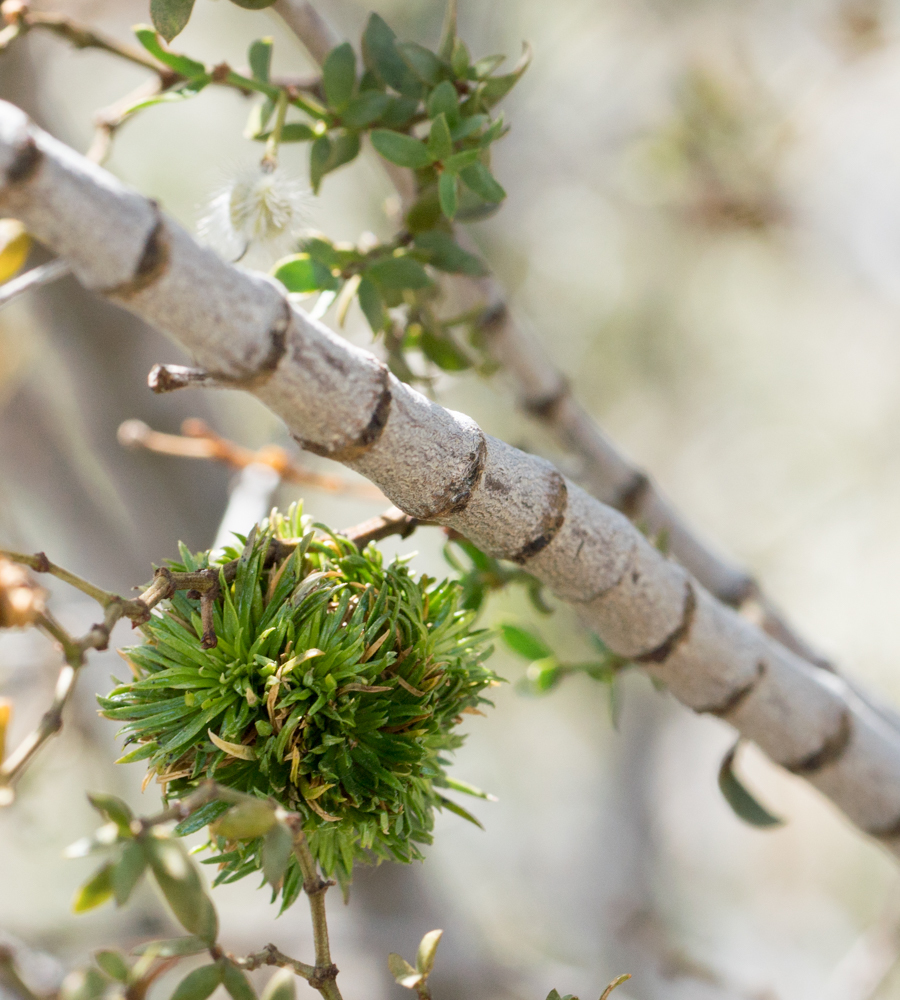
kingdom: Animalia
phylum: Arthropoda
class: Insecta
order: Diptera
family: Cecidomyiidae
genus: Asphondylia
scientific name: Asphondylia auripila
